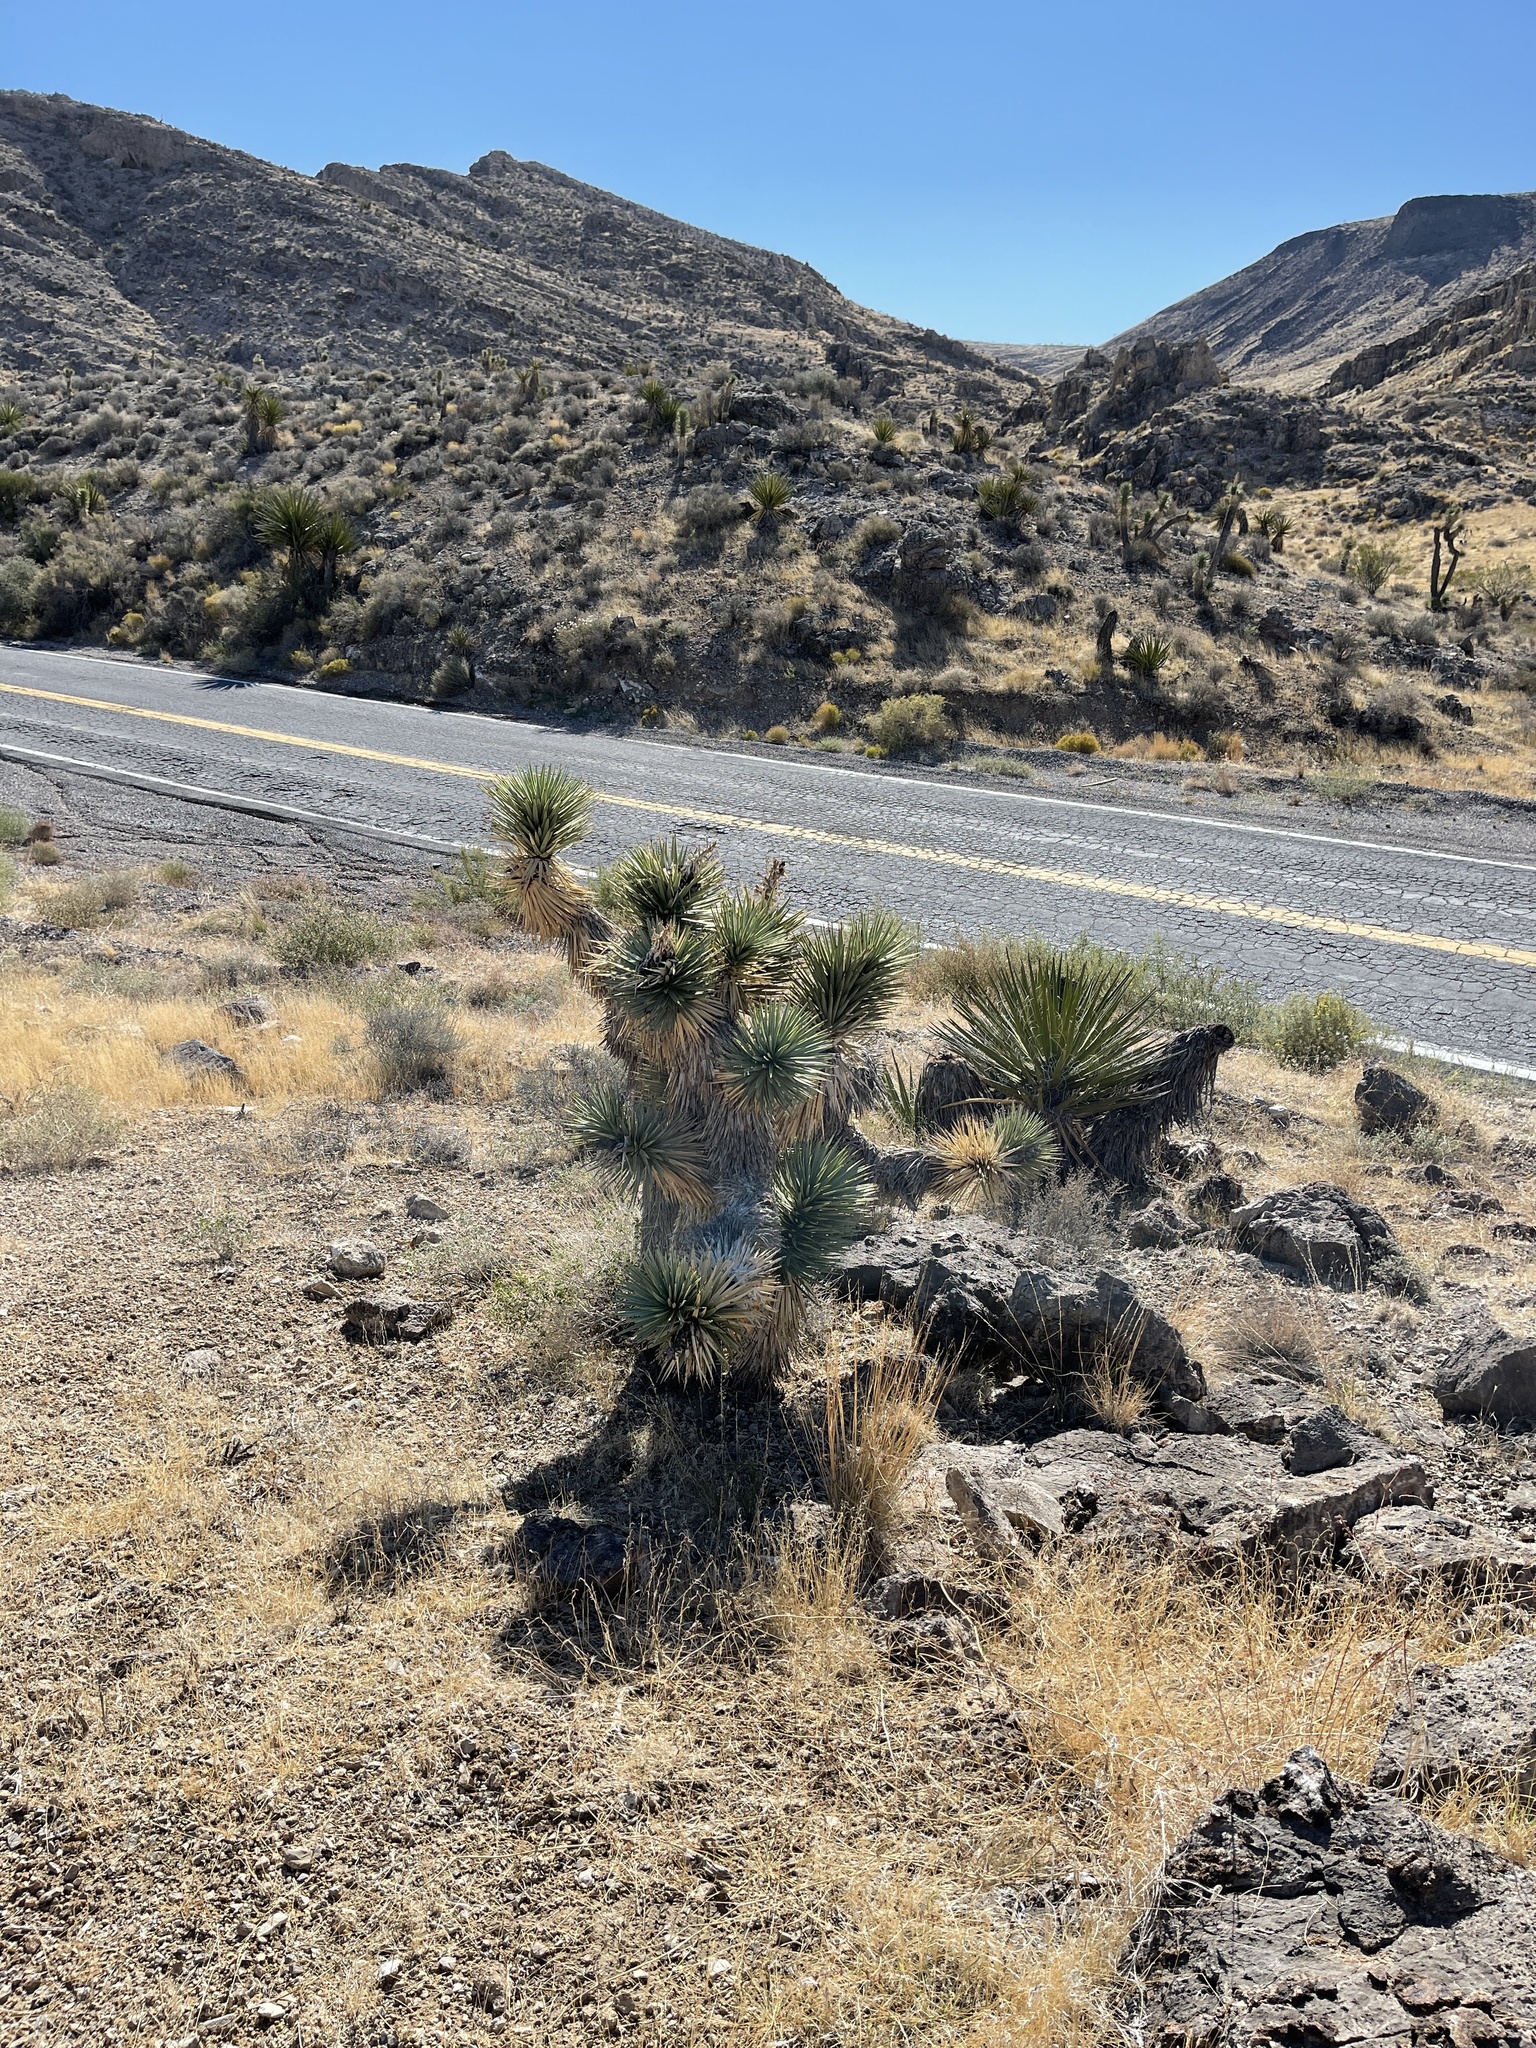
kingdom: Plantae
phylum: Tracheophyta
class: Liliopsida
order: Asparagales
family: Asparagaceae
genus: Yucca
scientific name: Yucca brevifolia
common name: Joshua tree
